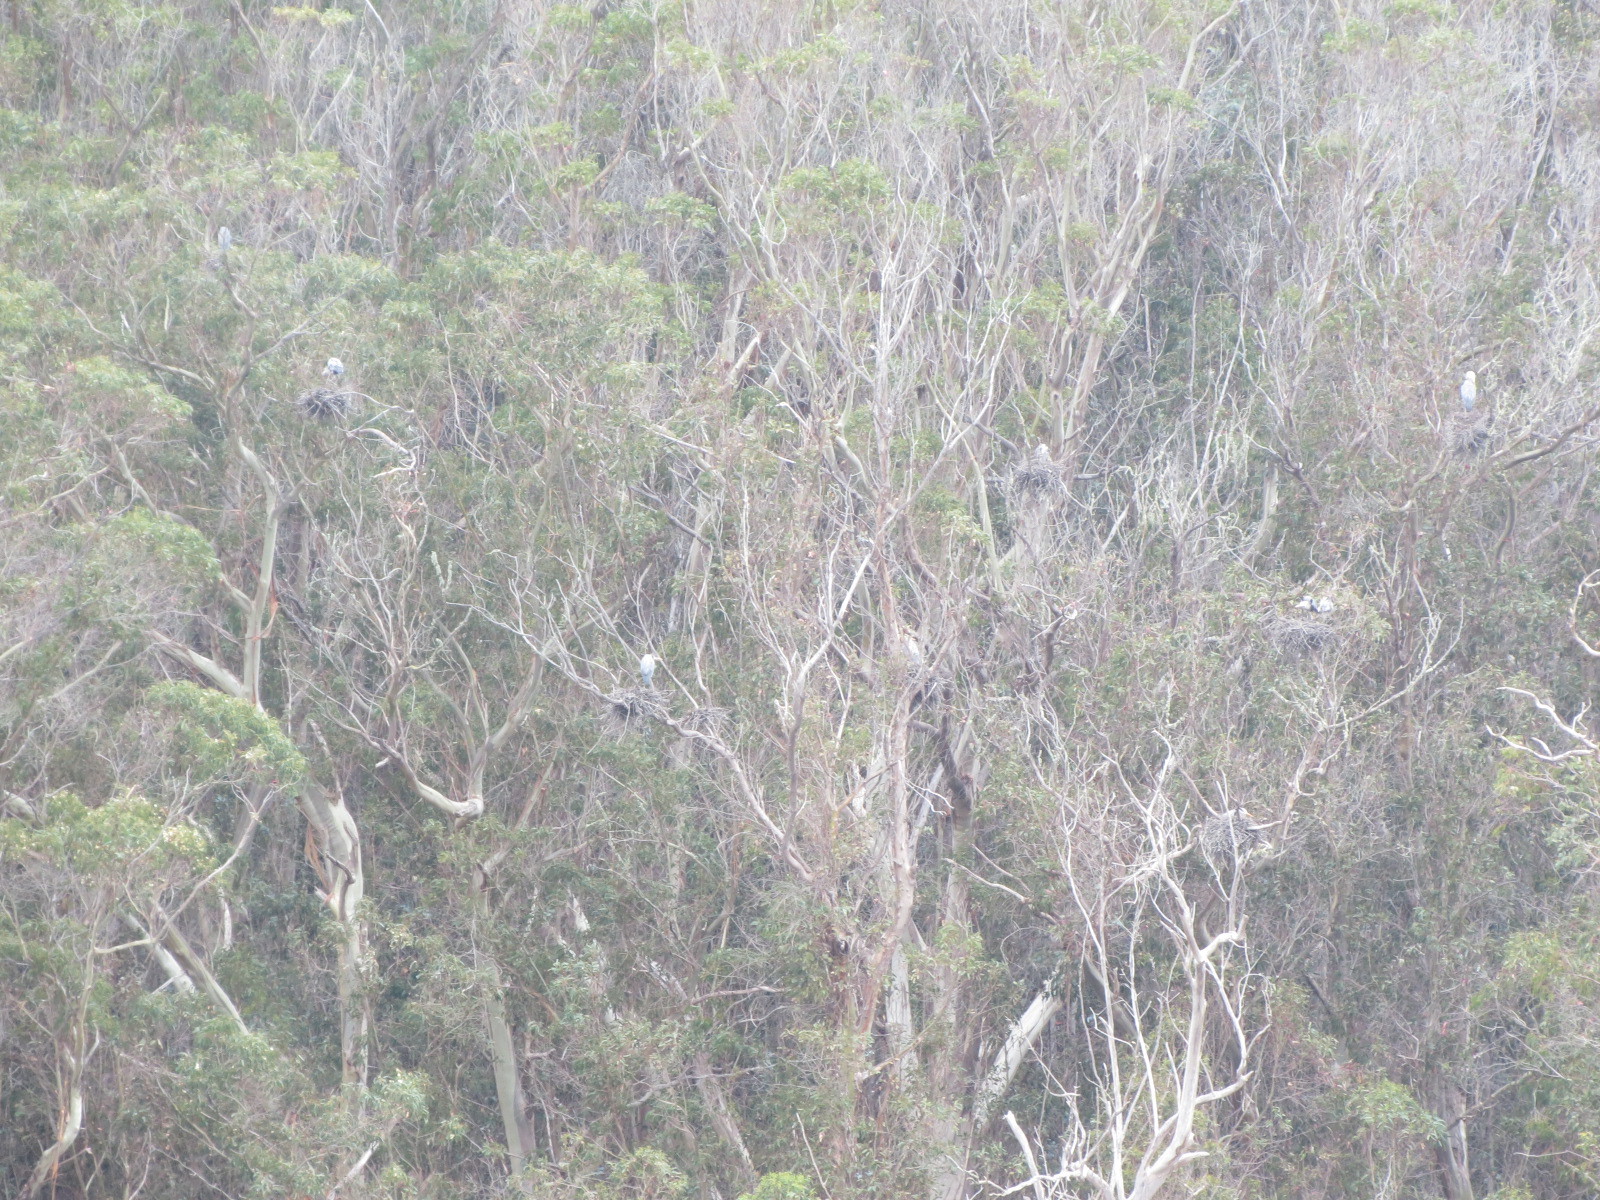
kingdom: Animalia
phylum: Chordata
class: Aves
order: Pelecaniformes
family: Ardeidae
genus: Ardea
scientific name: Ardea herodias
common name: Great blue heron
